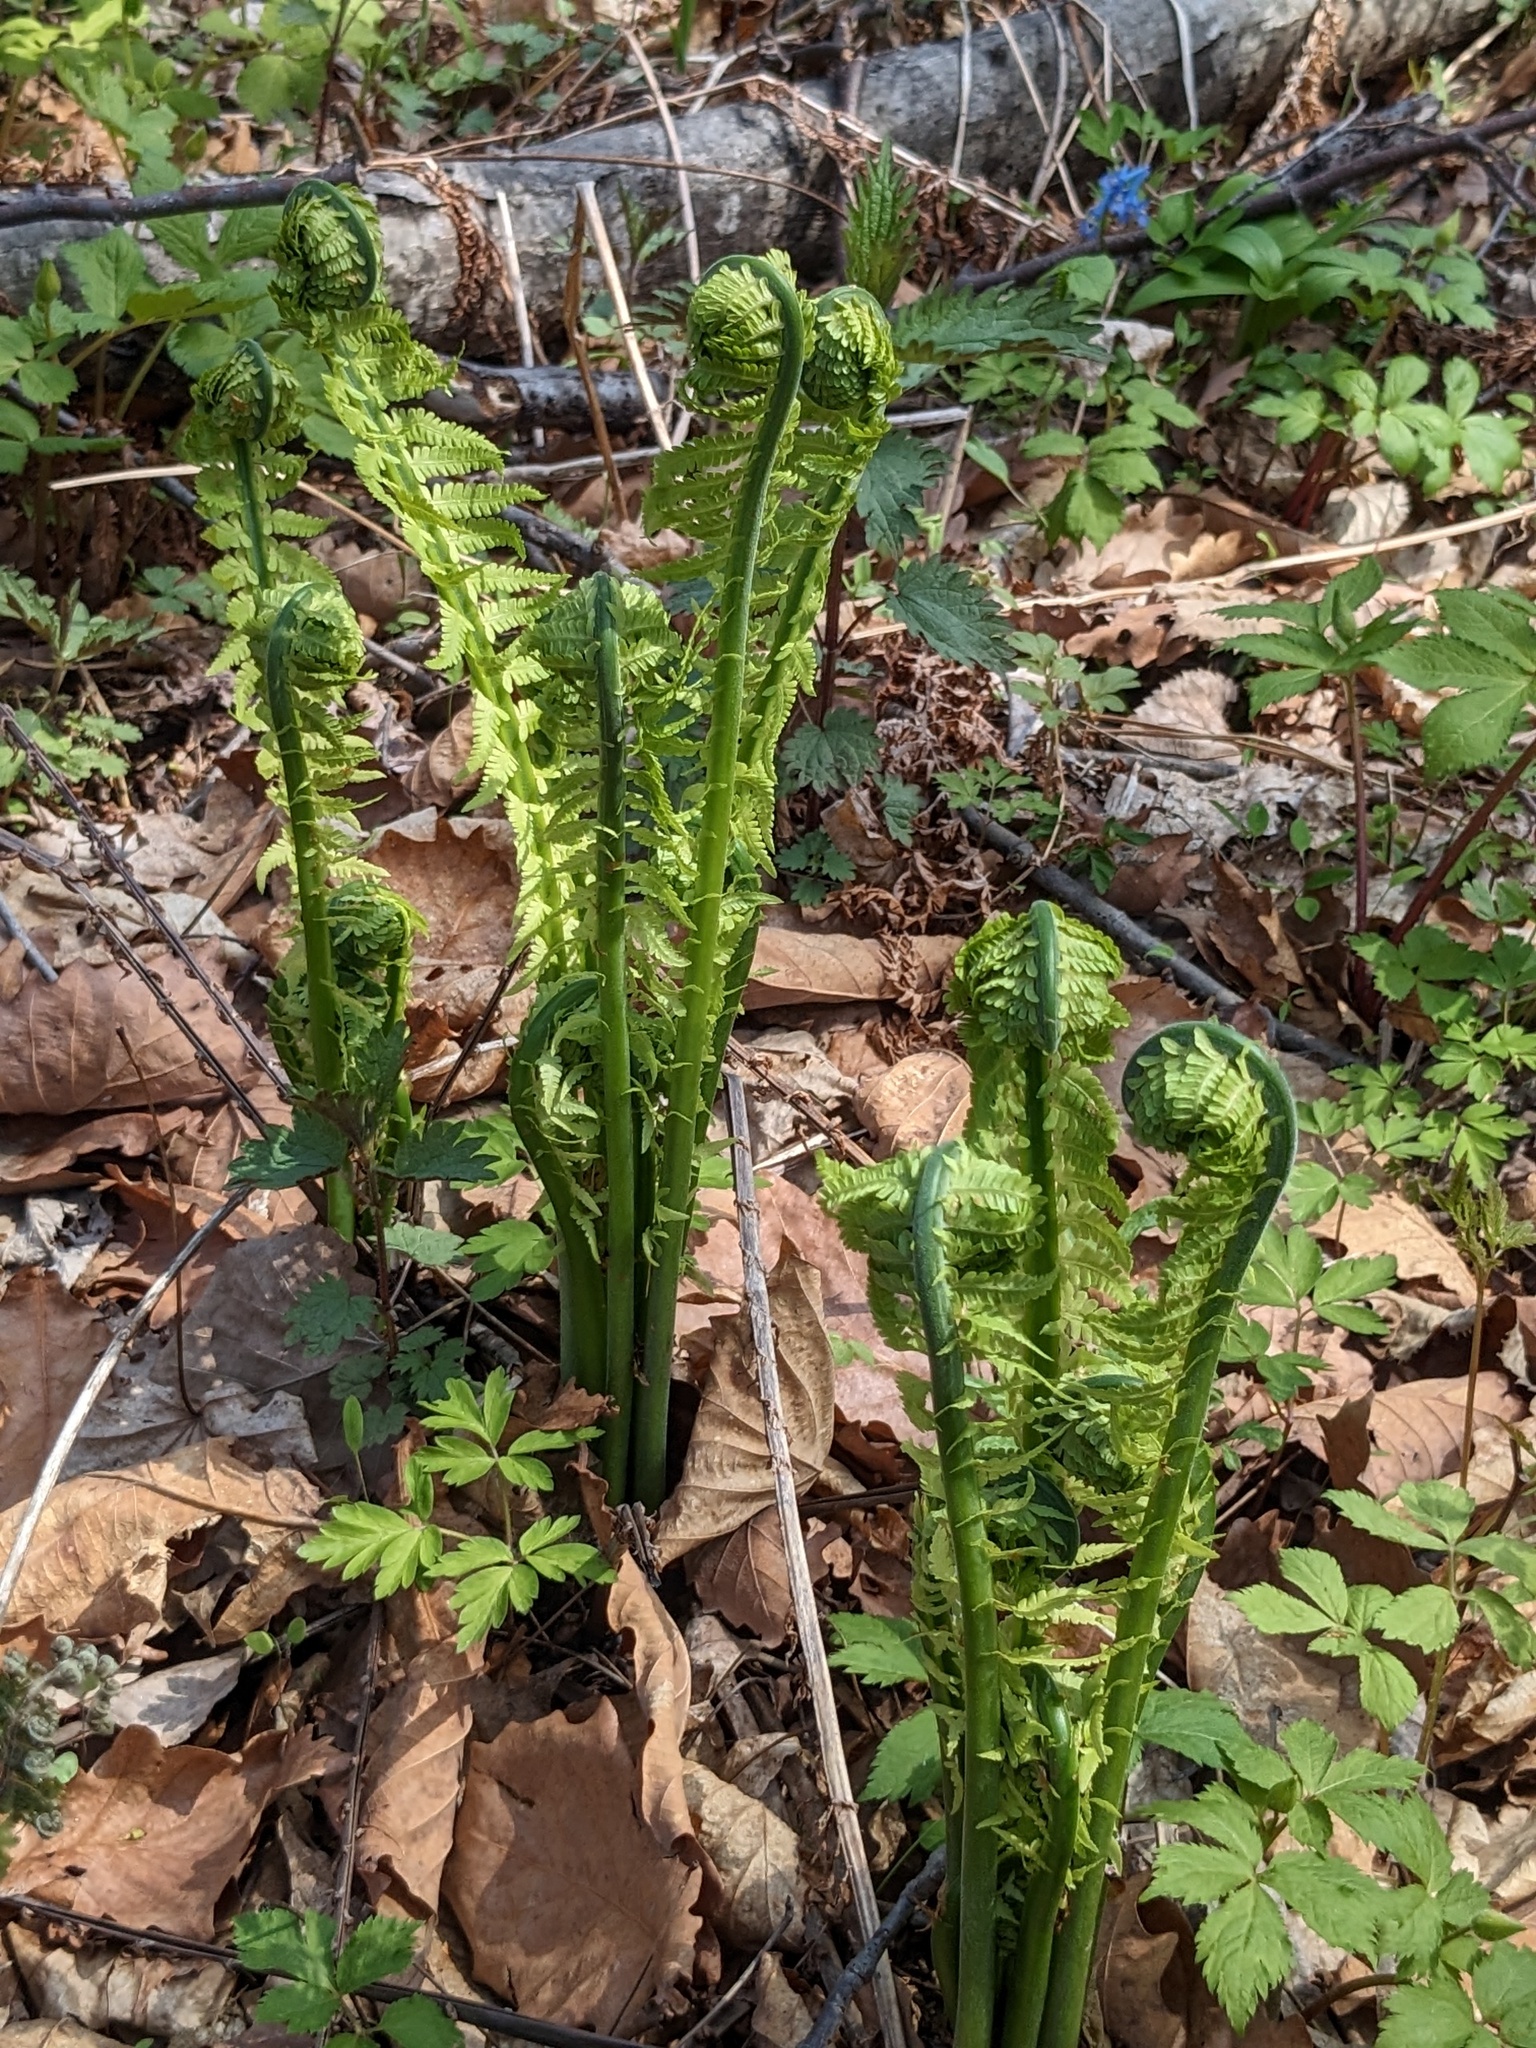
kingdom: Plantae
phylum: Tracheophyta
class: Polypodiopsida
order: Polypodiales
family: Onocleaceae
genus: Matteuccia
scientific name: Matteuccia struthiopteris
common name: Ostrich fern
